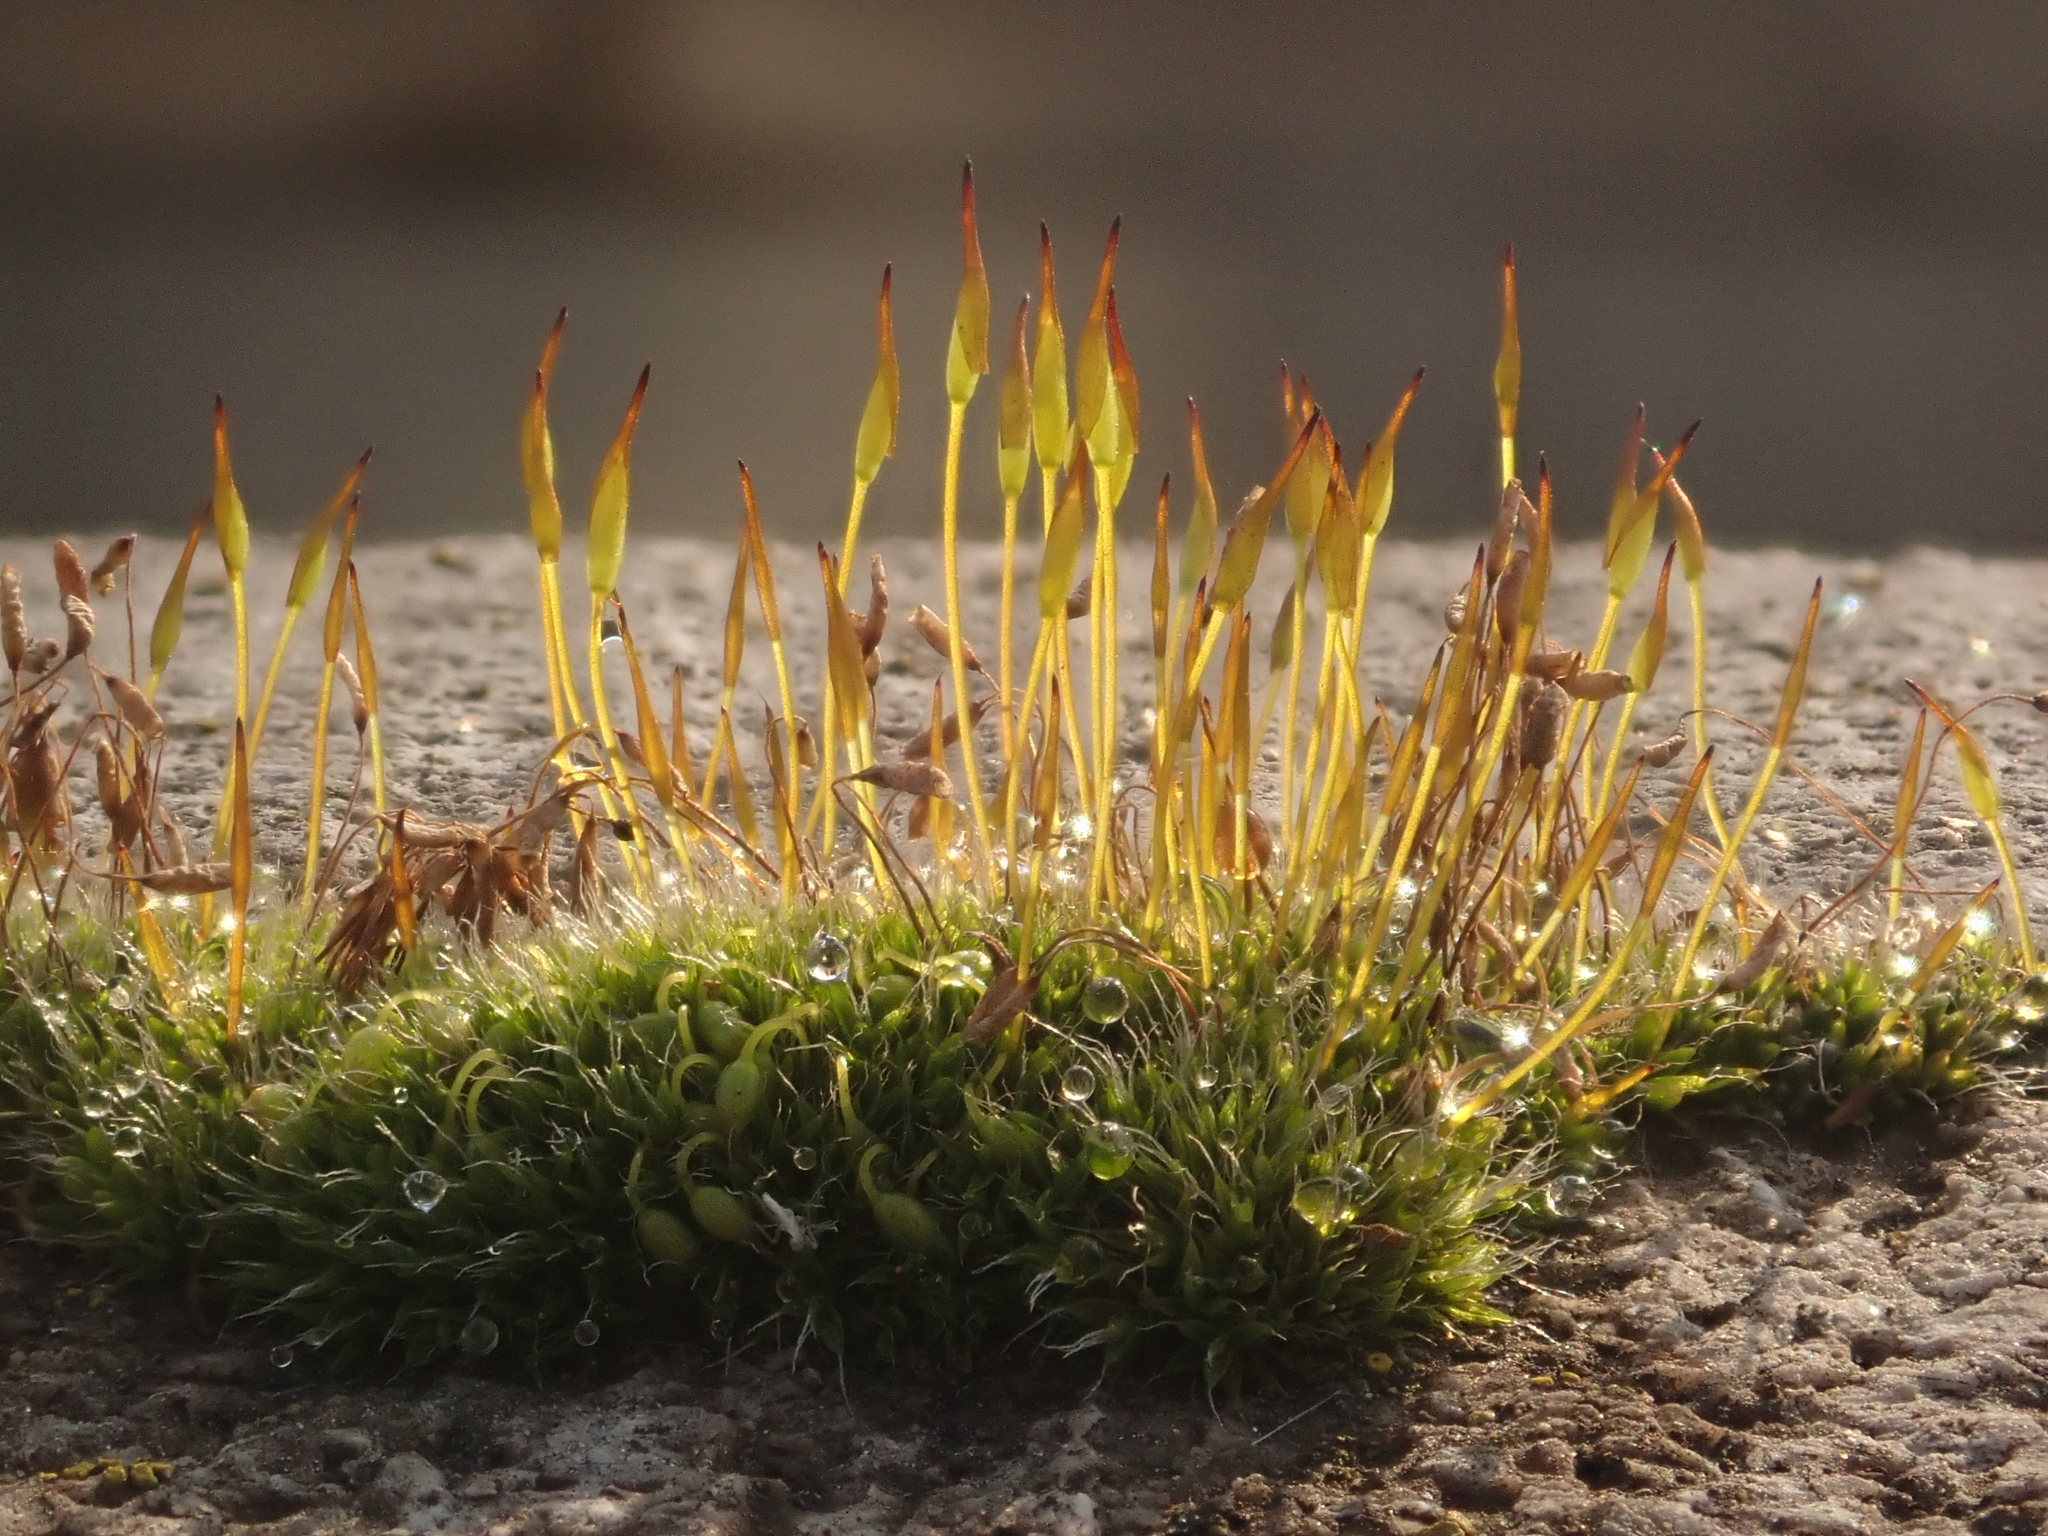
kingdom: Plantae
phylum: Bryophyta
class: Bryopsida
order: Pottiales
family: Pottiaceae
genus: Tortula
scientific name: Tortula muralis
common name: Wall screw-moss
